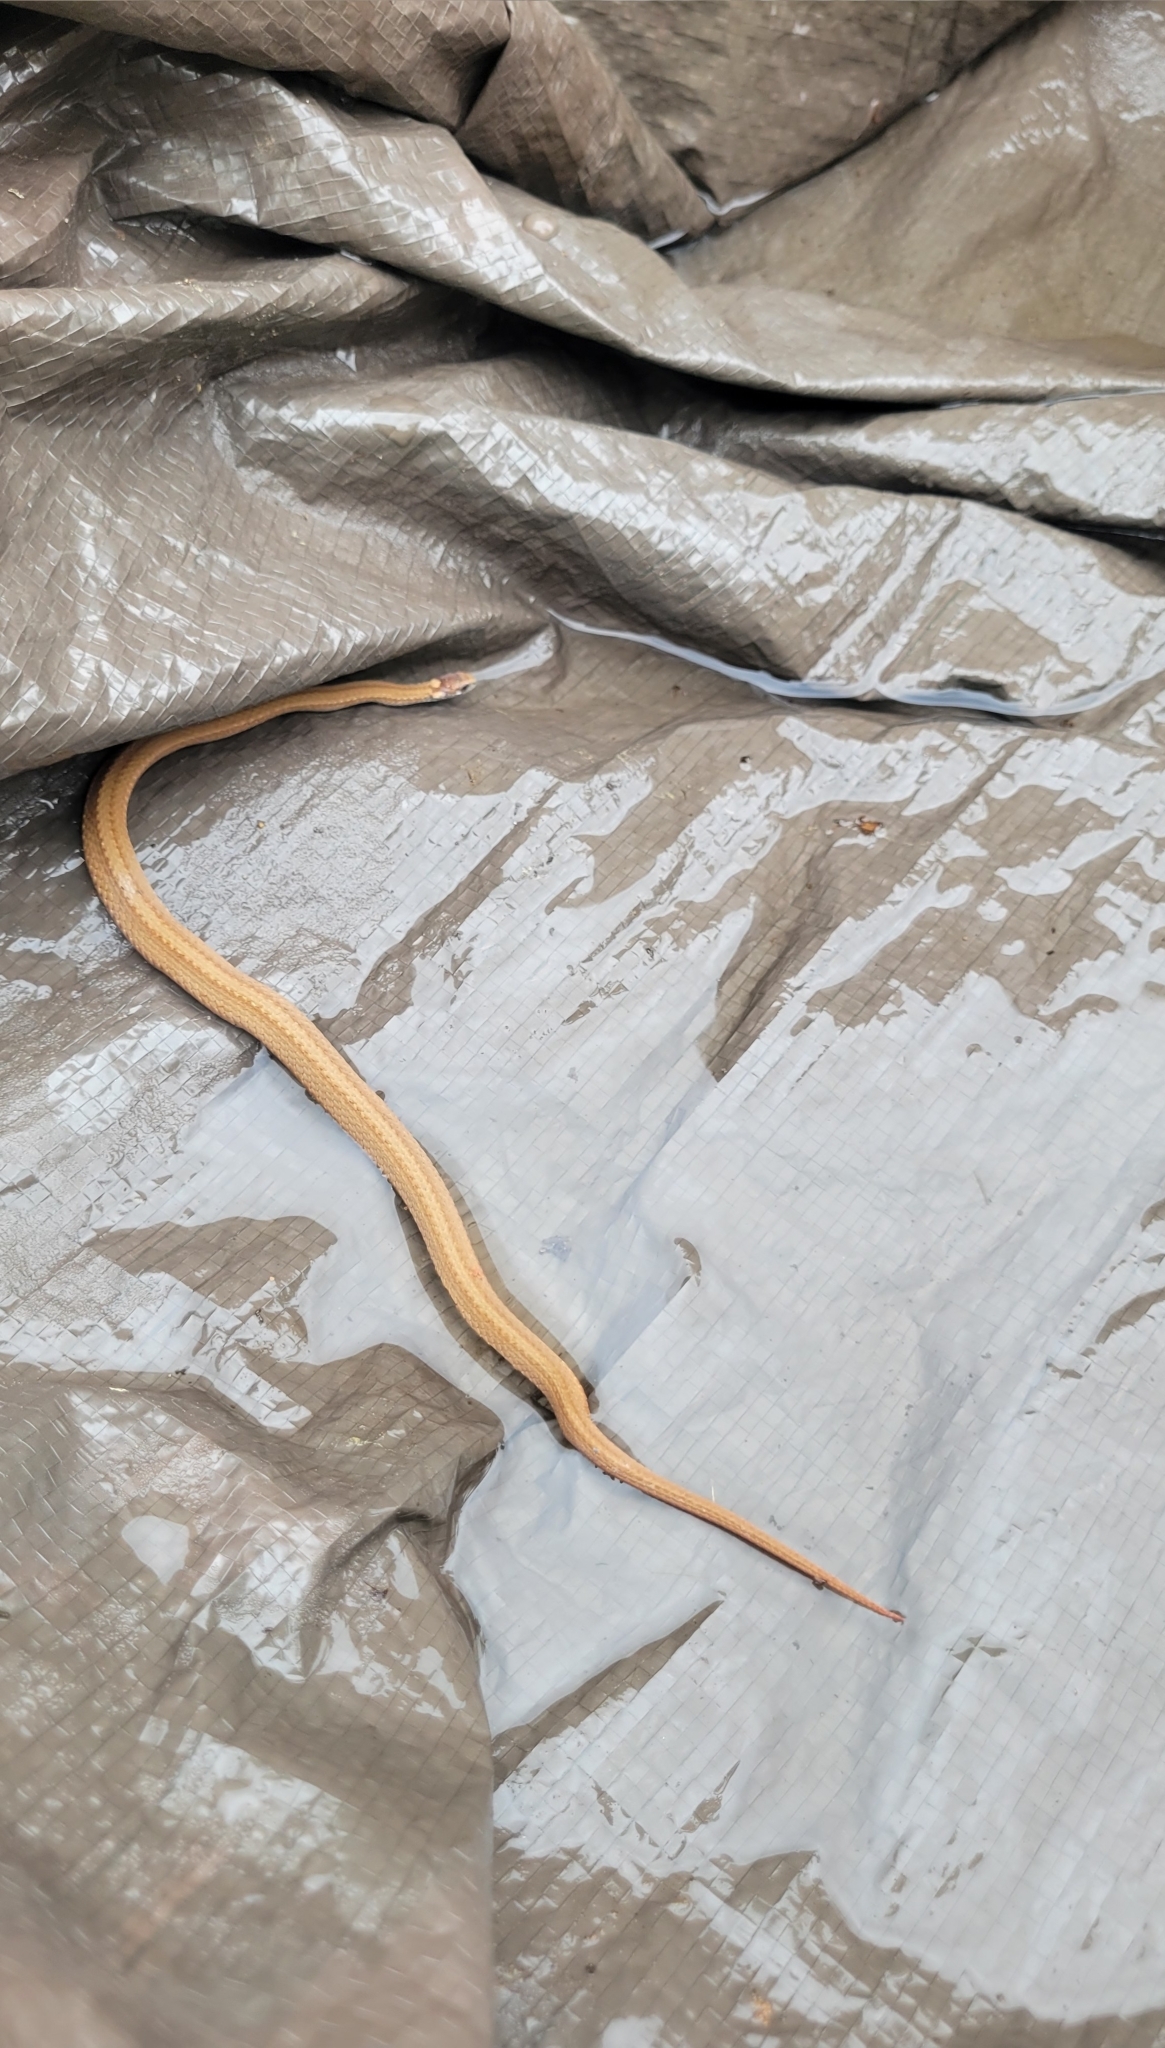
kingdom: Animalia
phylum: Chordata
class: Squamata
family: Colubridae
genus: Storeria
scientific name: Storeria occipitomaculata
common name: Redbelly snake
